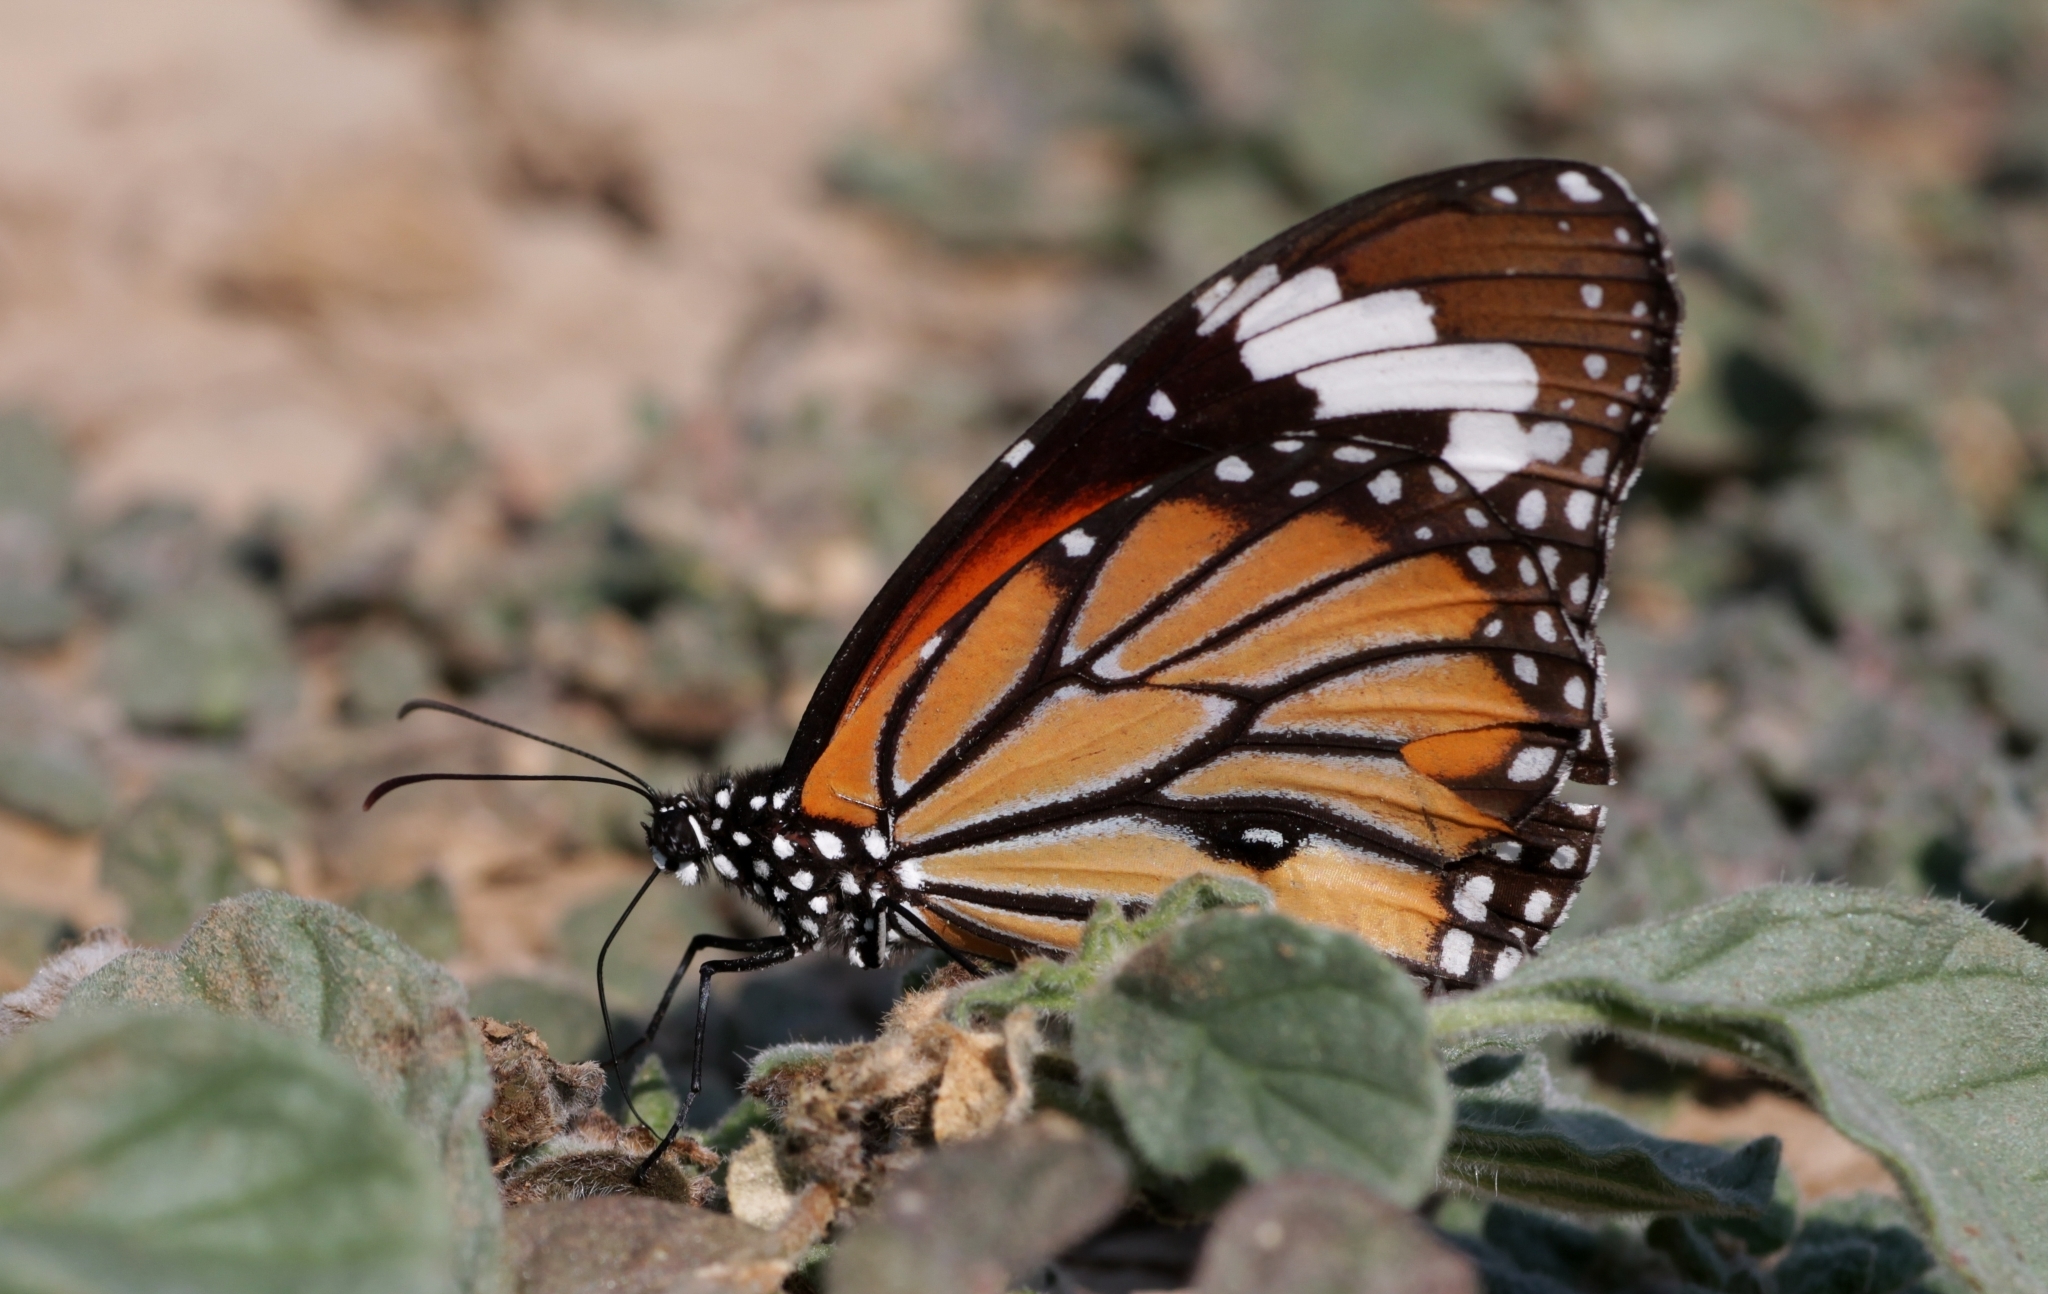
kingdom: Animalia
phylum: Arthropoda
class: Insecta
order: Lepidoptera
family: Nymphalidae
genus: Danaus
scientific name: Danaus genutia
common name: Common tiger butterfly
